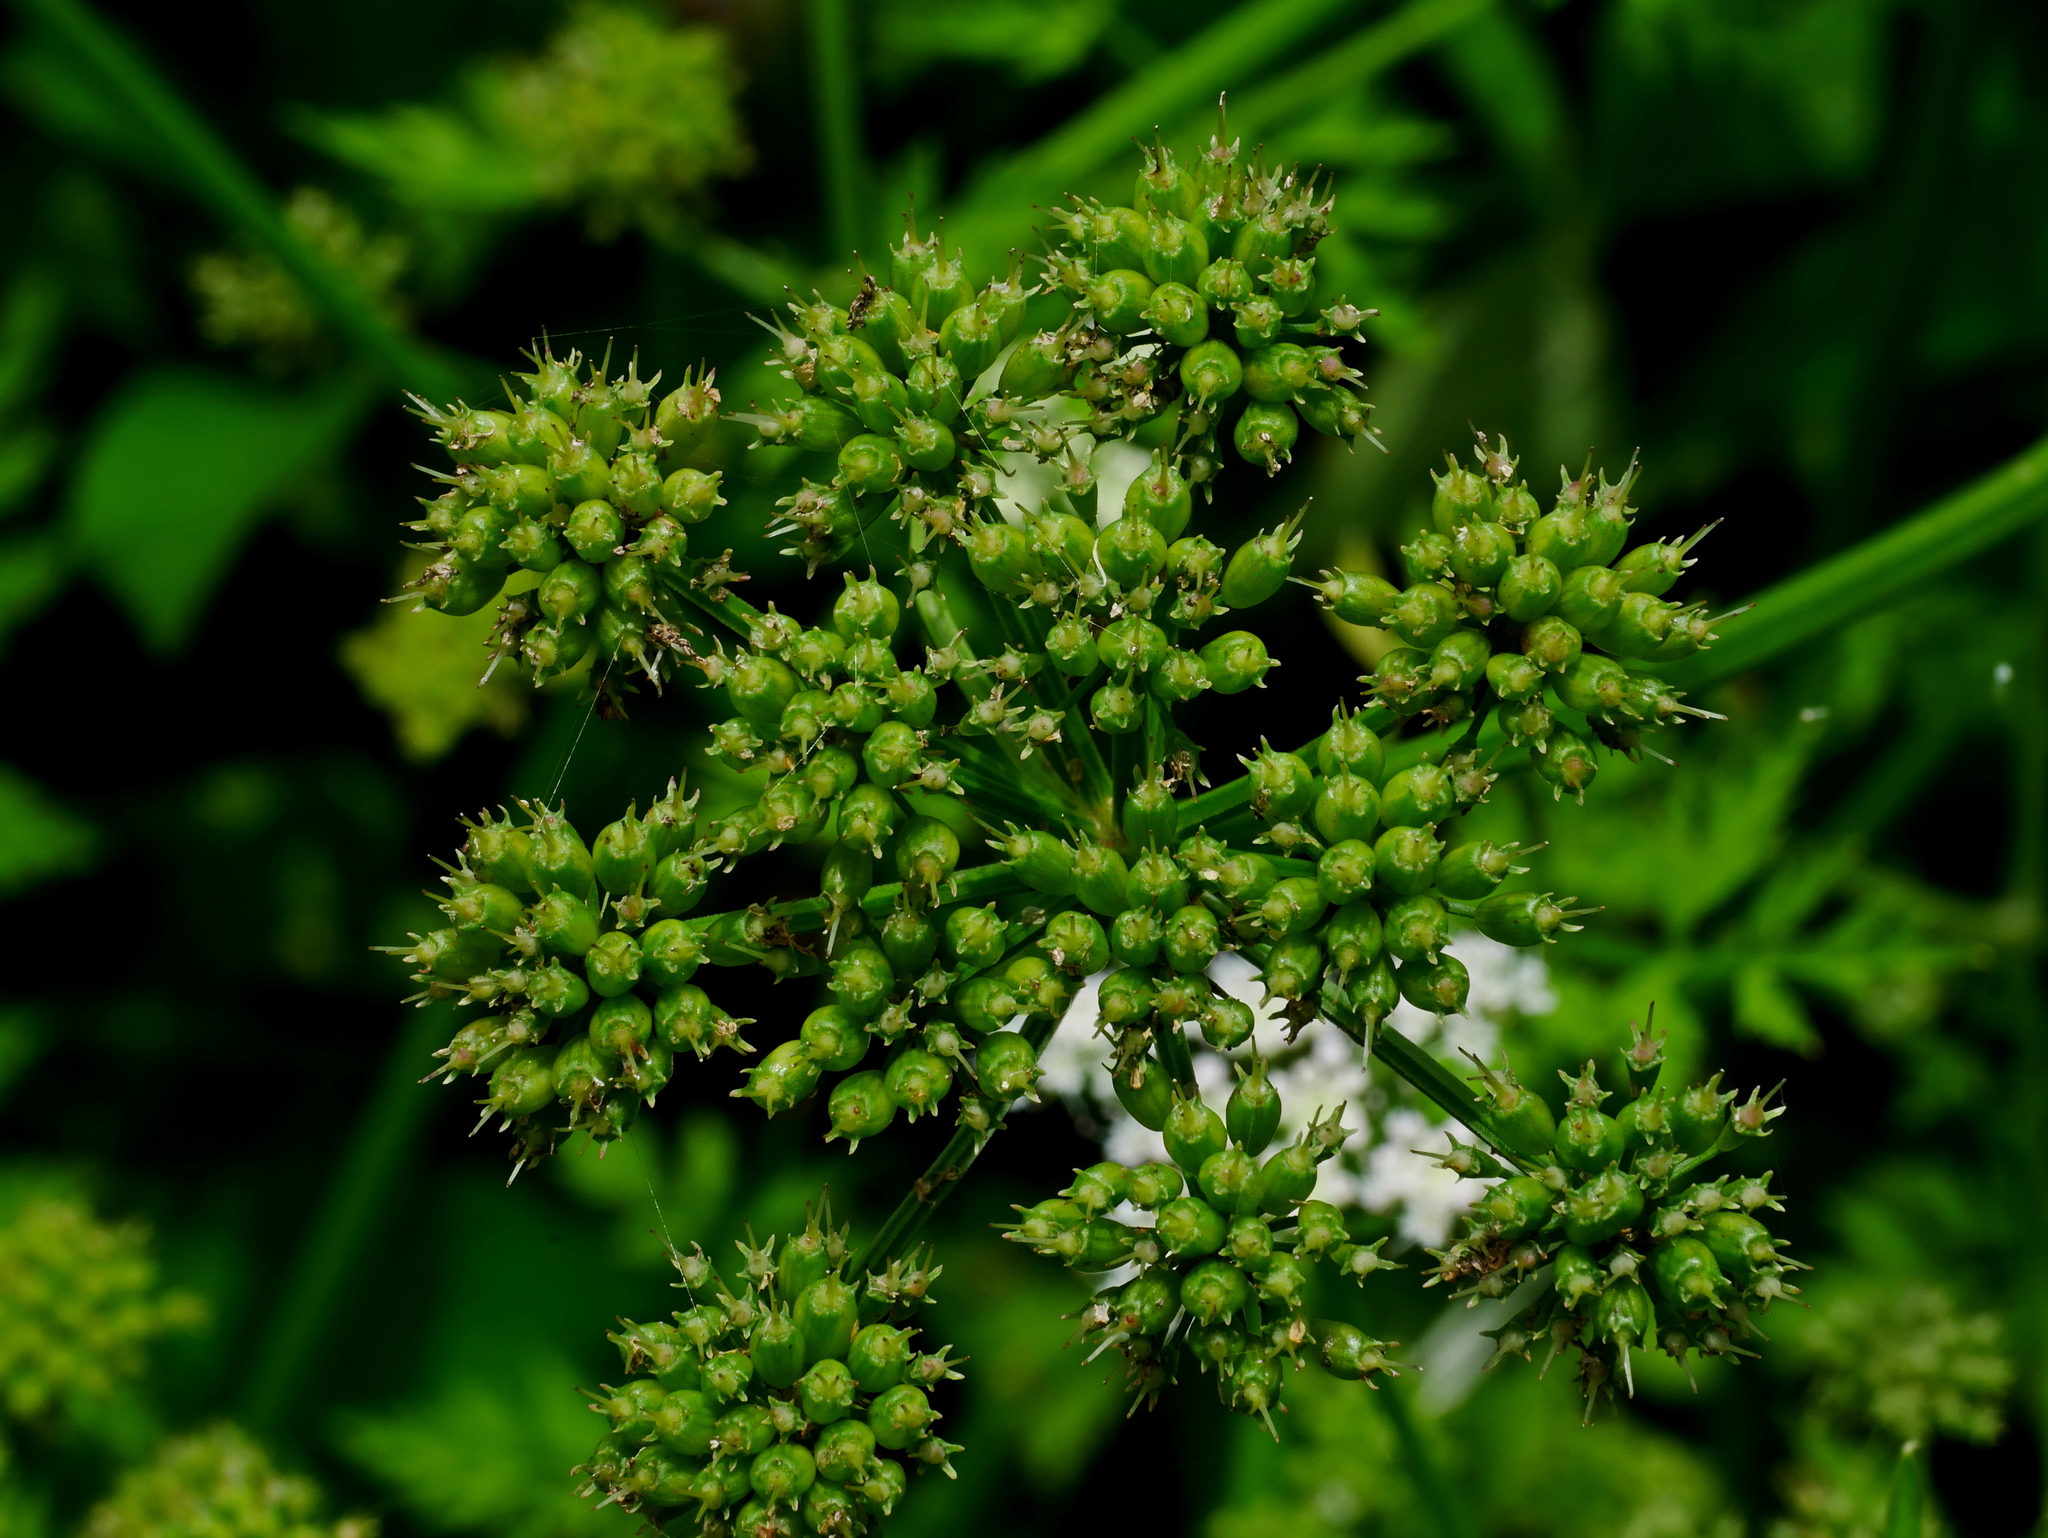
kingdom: Plantae
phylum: Tracheophyta
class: Magnoliopsida
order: Apiales
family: Apiaceae
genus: Oenanthe
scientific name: Oenanthe javanica
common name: Java water-dropwort
